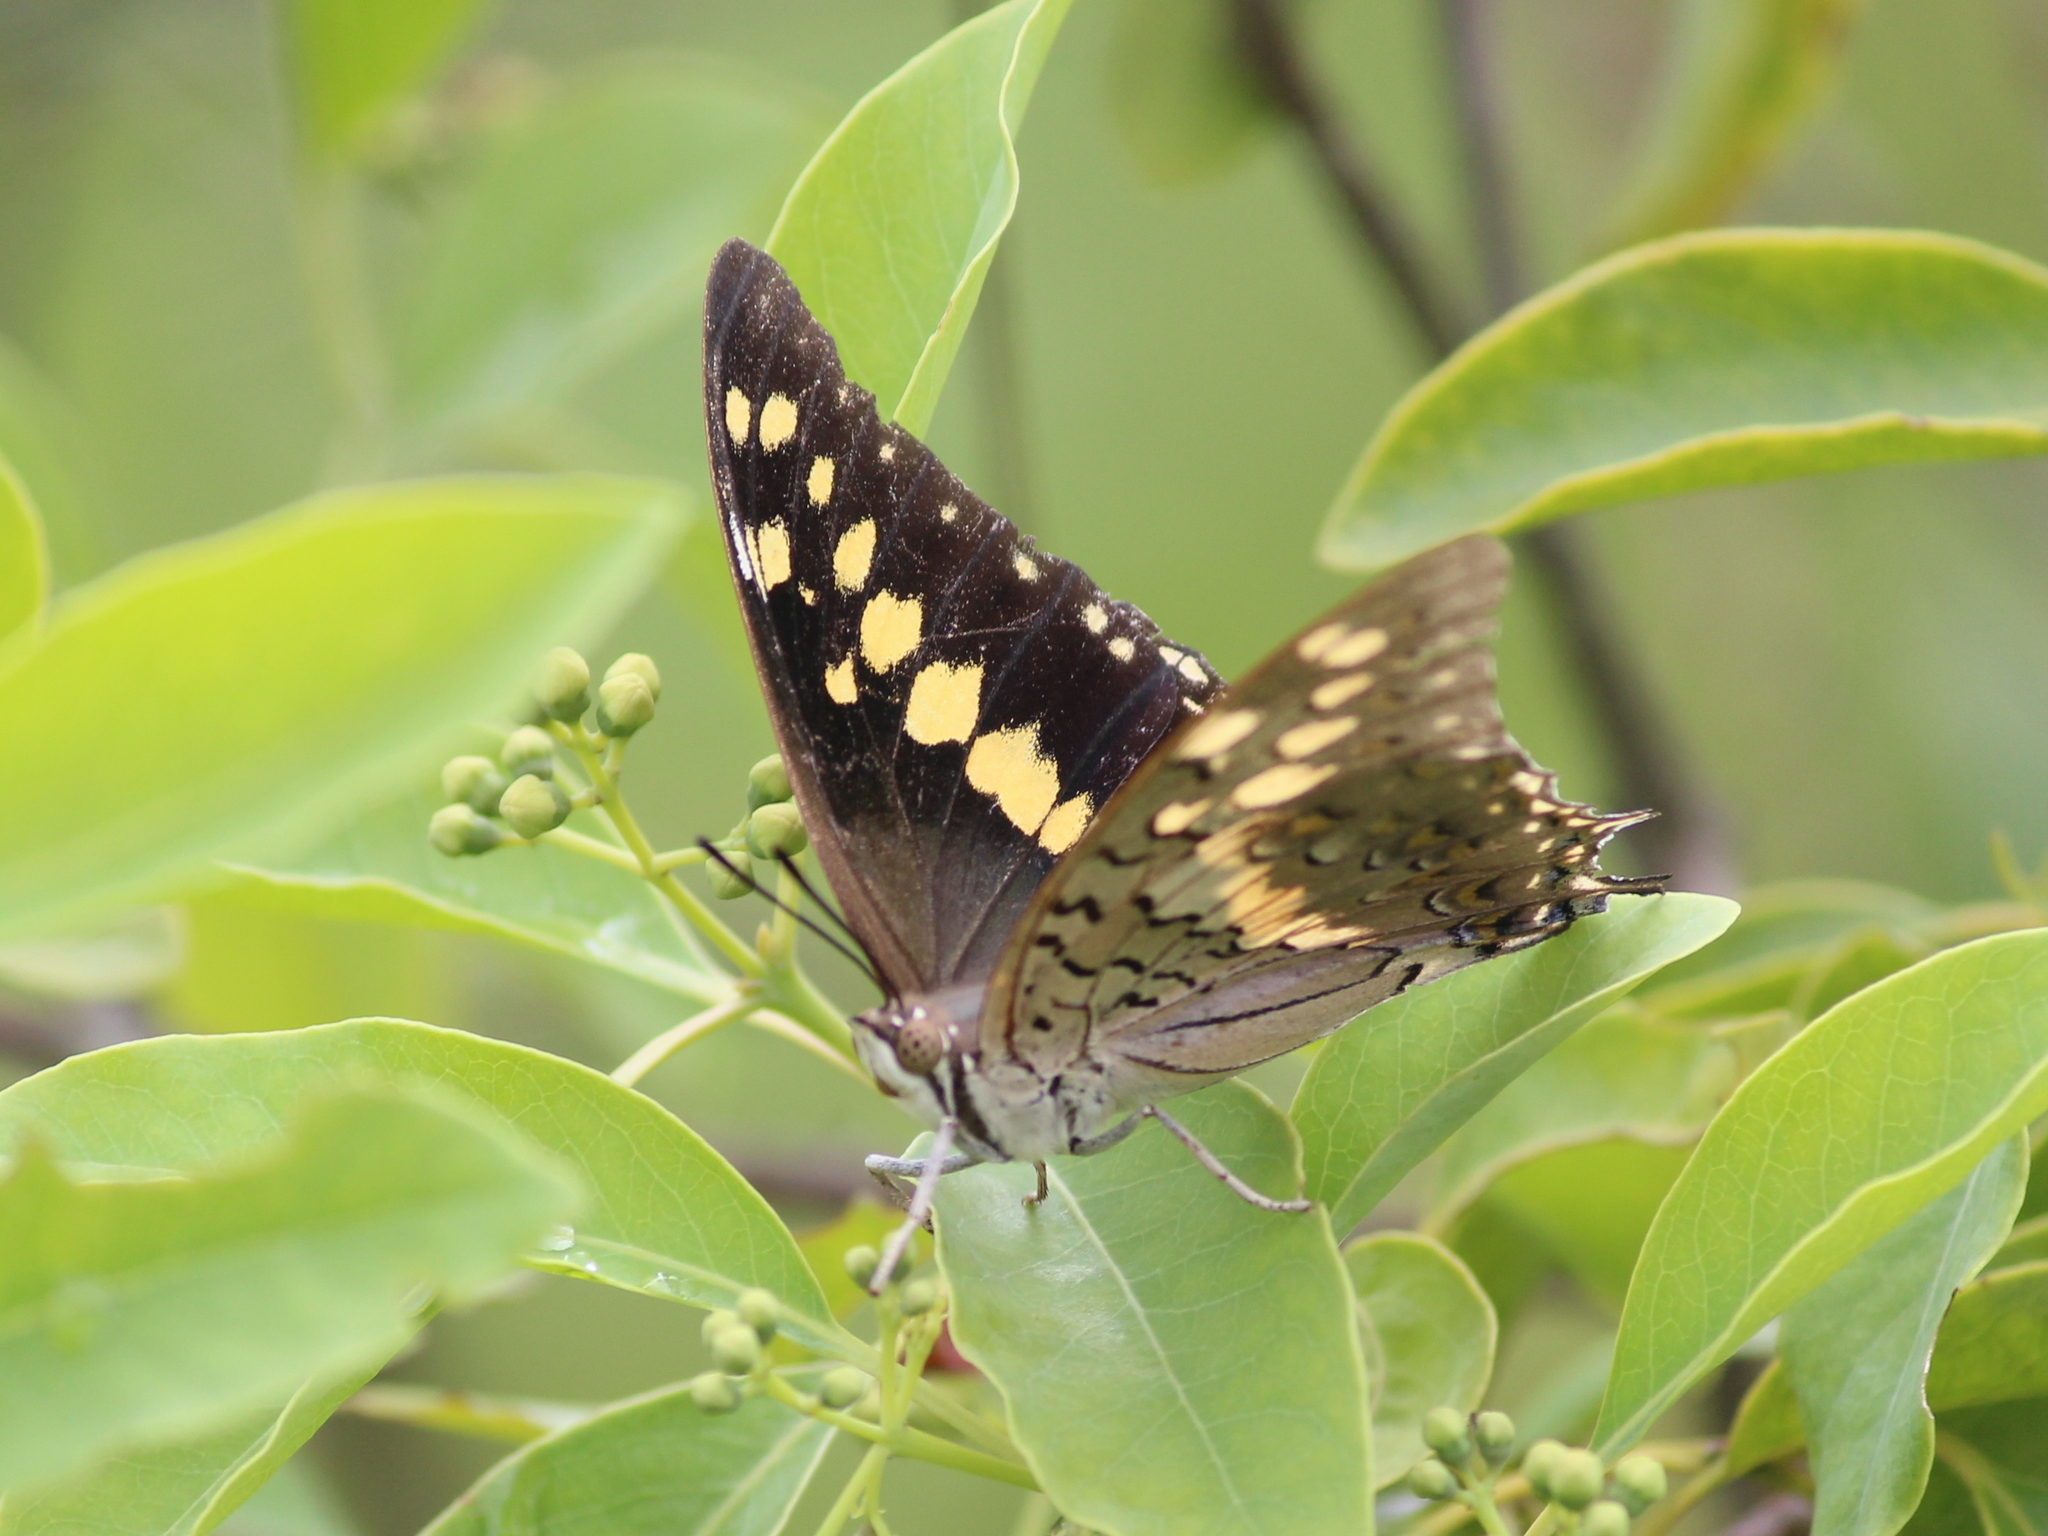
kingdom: Animalia
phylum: Arthropoda
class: Insecta
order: Lepidoptera
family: Nymphalidae
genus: Charaxes
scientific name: Charaxes solon
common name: Black rajah
